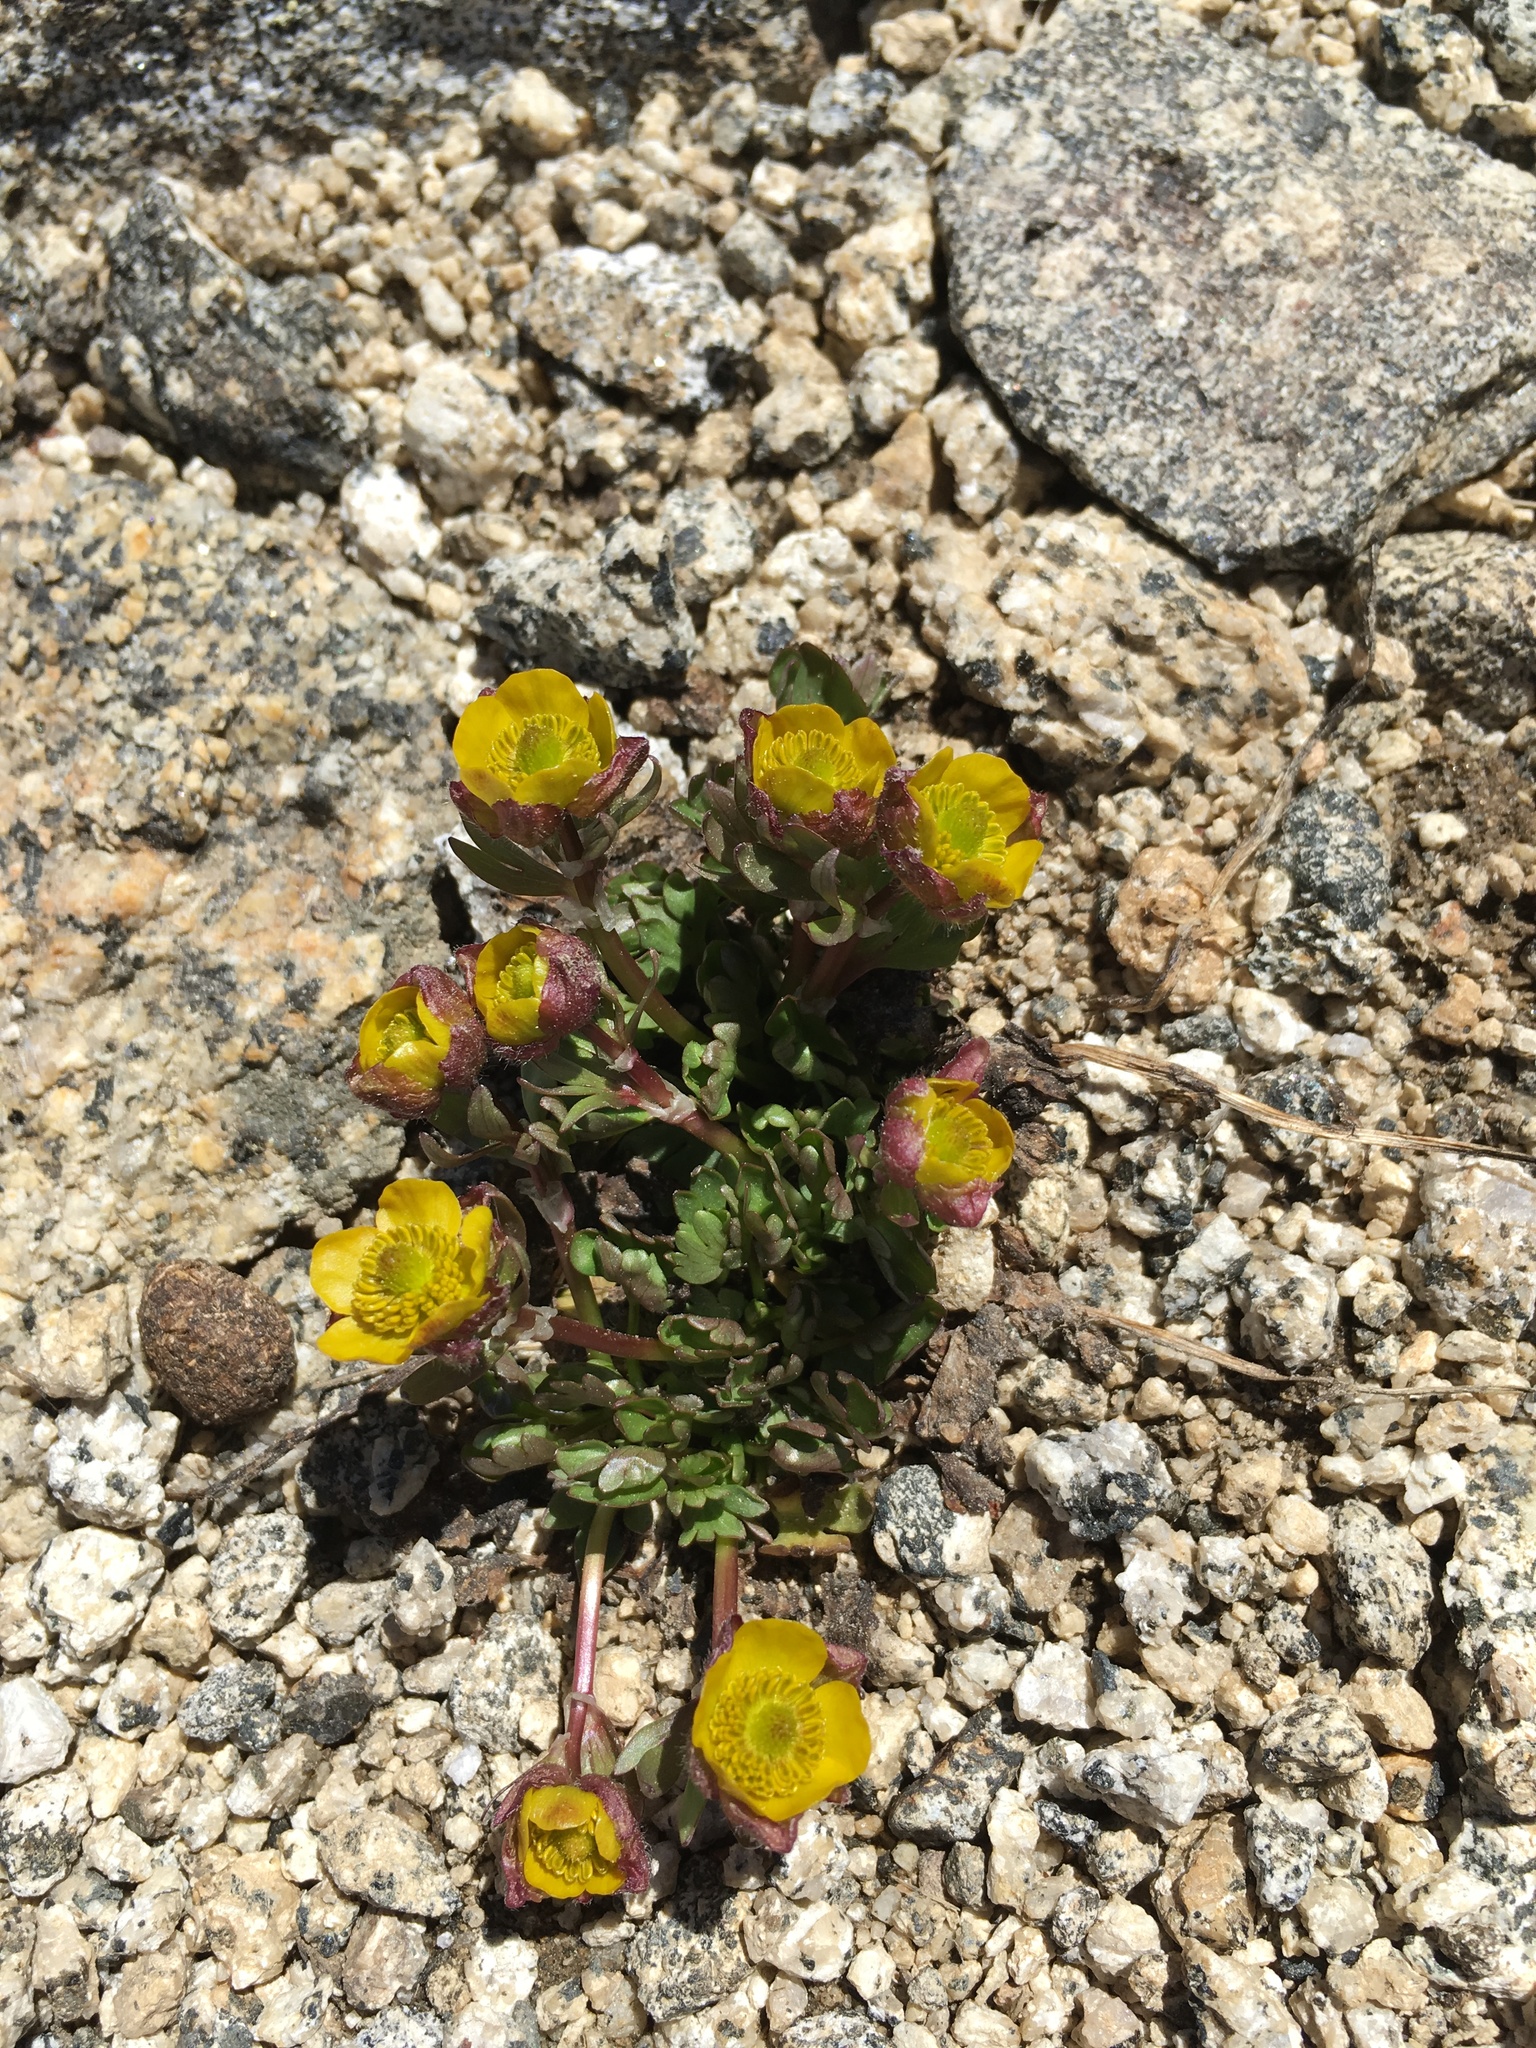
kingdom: Plantae
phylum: Tracheophyta
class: Magnoliopsida
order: Ranunculales
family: Ranunculaceae
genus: Ranunculus
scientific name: Ranunculus eschscholtzii
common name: Eschscholtz's buttercup
